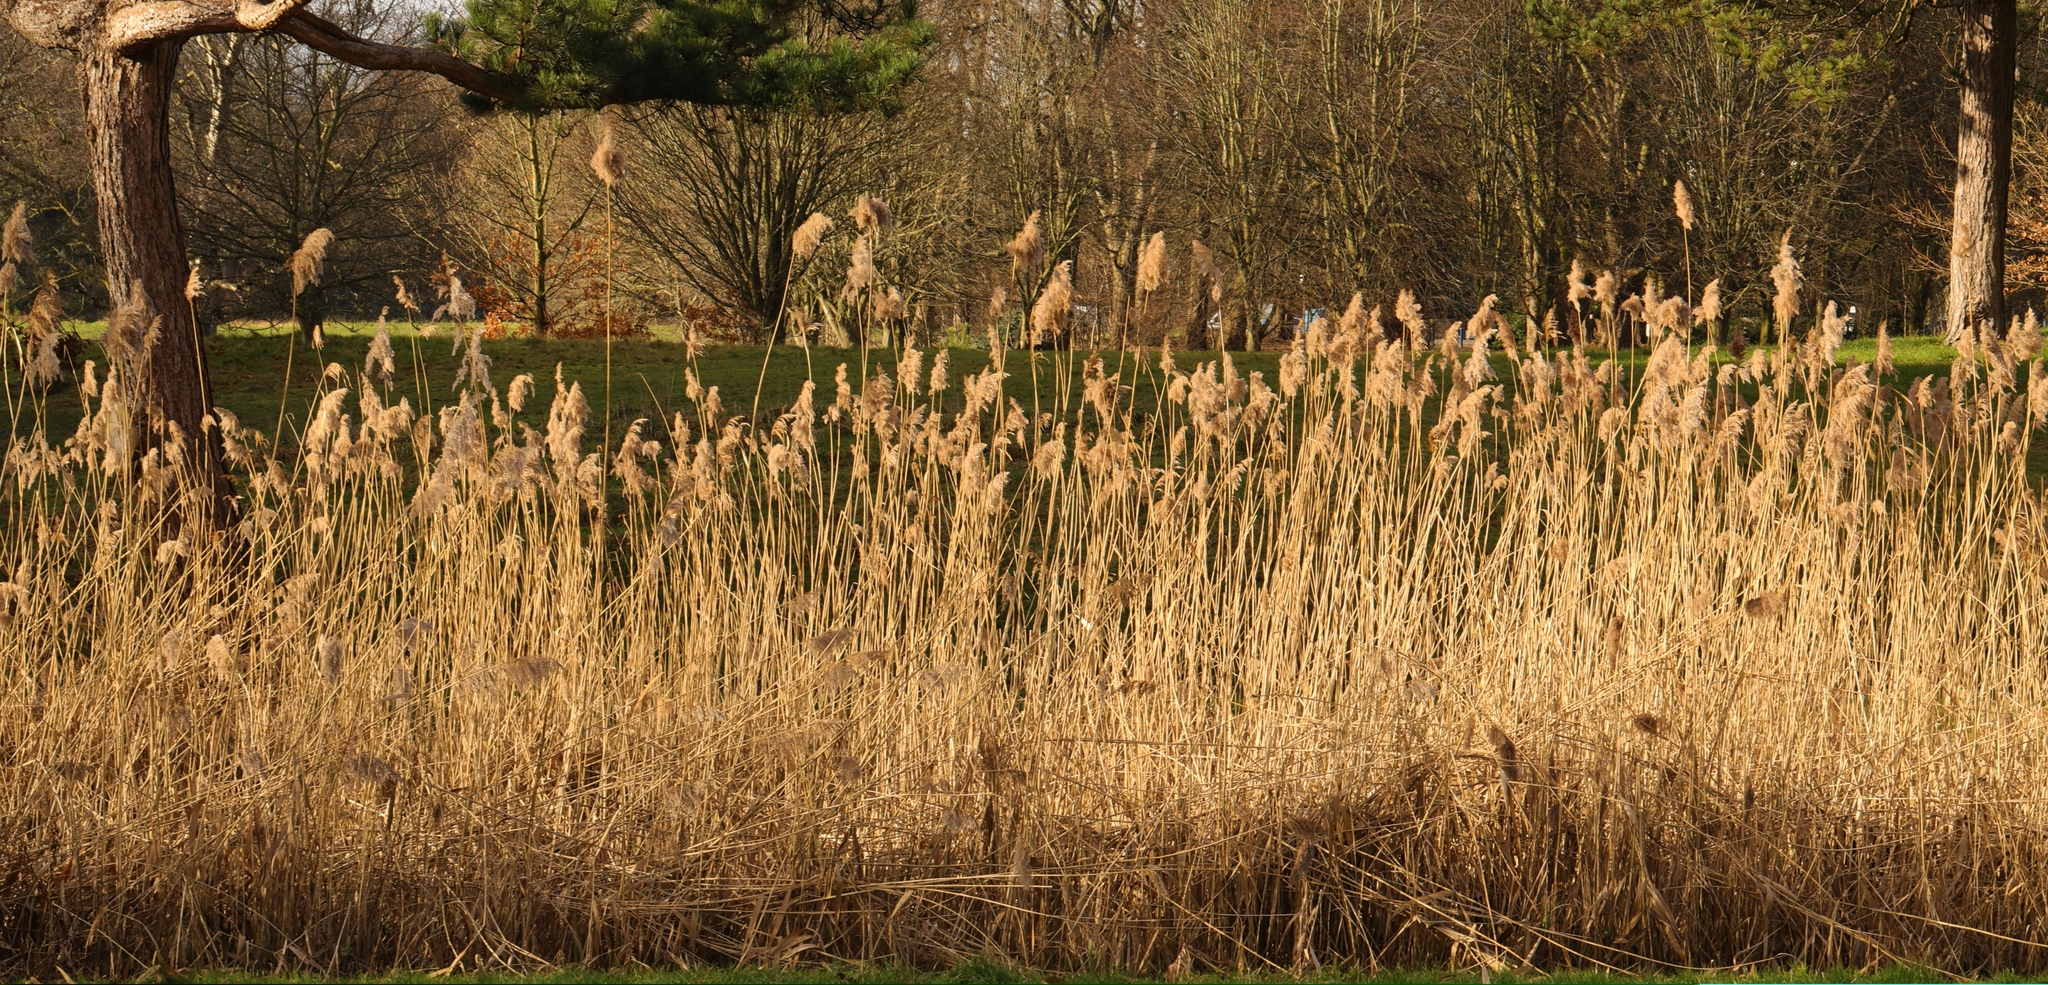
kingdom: Plantae
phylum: Tracheophyta
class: Liliopsida
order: Poales
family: Poaceae
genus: Phragmites
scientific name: Phragmites australis
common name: Common reed
